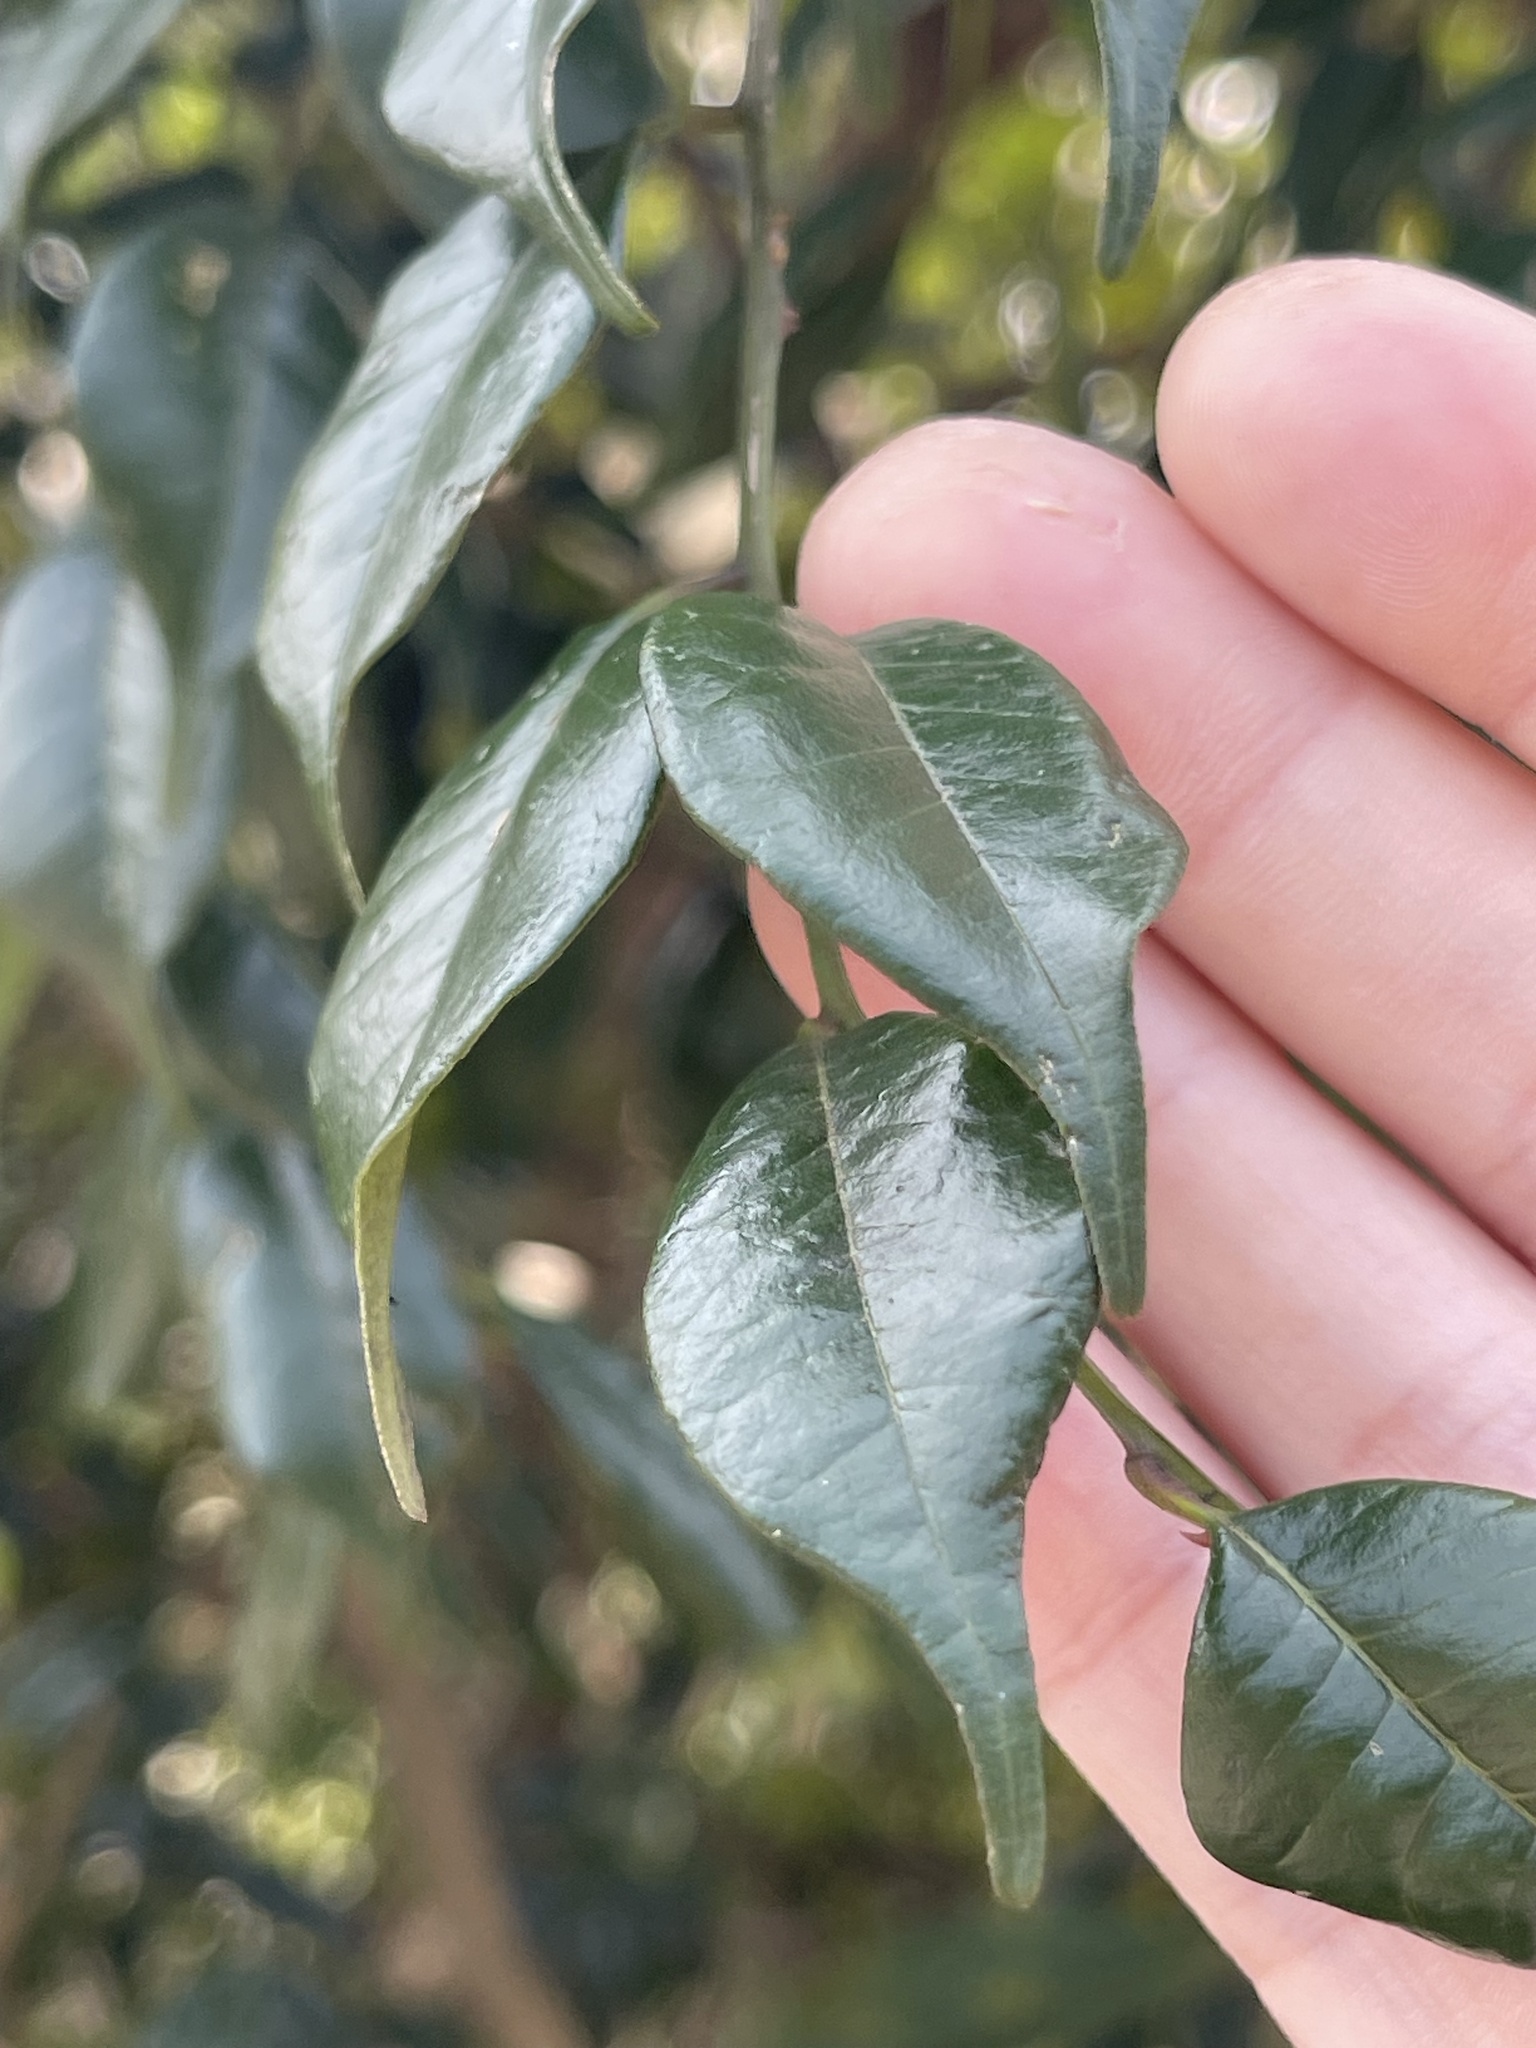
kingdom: Plantae
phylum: Tracheophyta
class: Magnoliopsida
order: Sapindales
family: Rutaceae
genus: Zanthoxylum
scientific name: Zanthoxylum scandens
